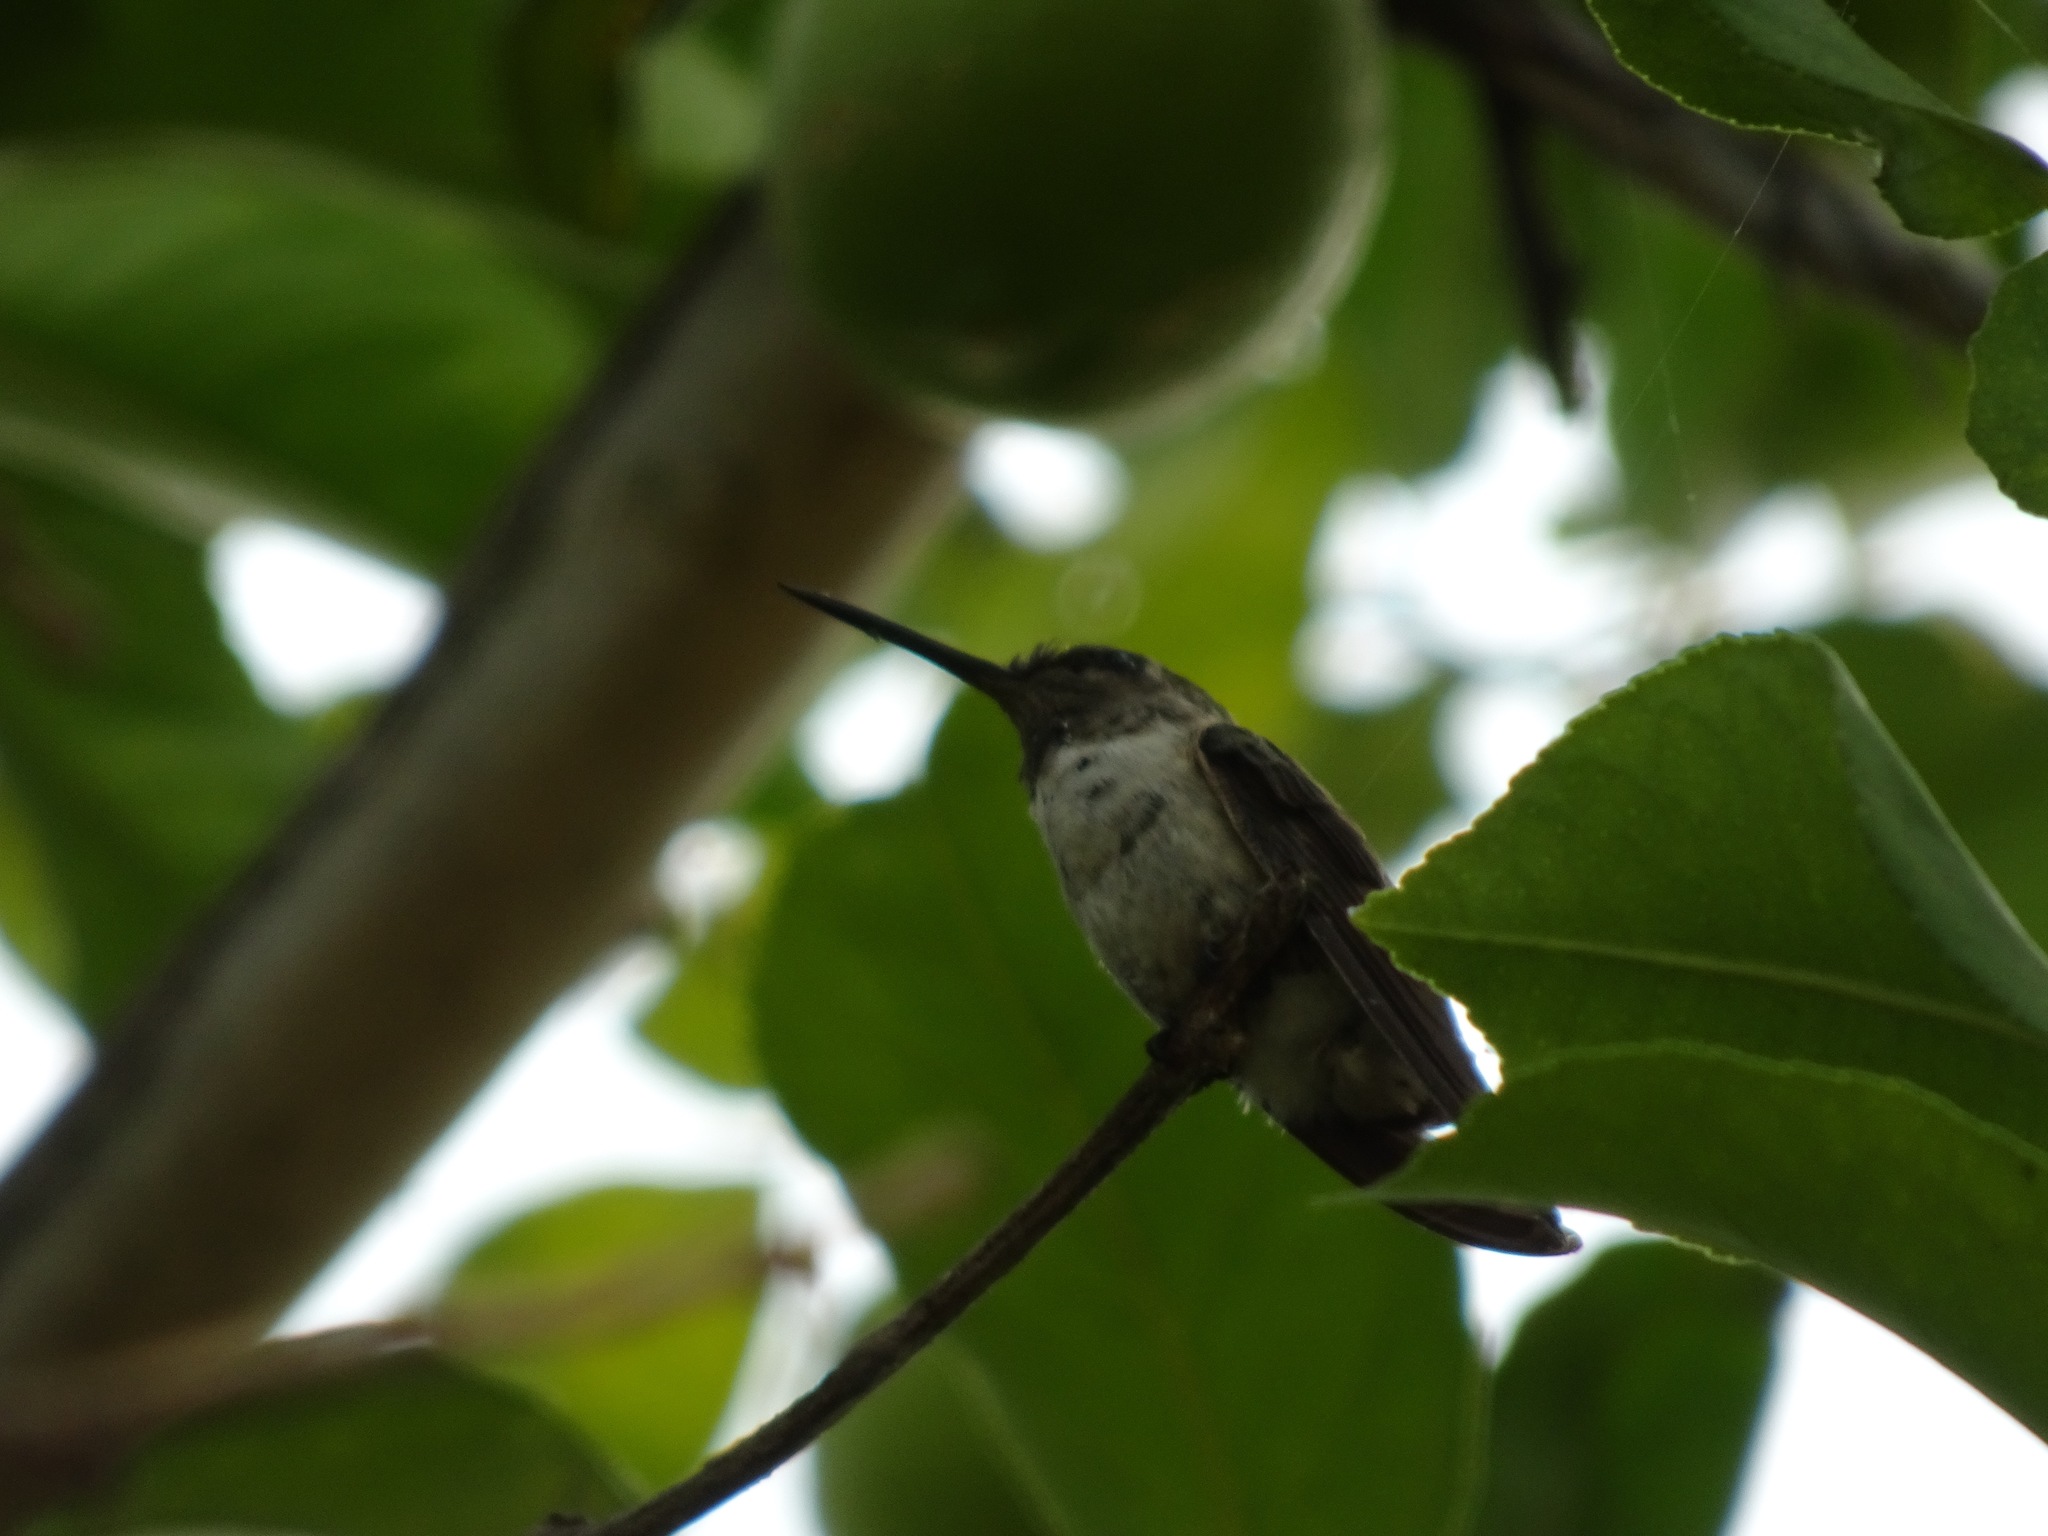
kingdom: Animalia
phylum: Chordata
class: Aves
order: Apodiformes
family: Trochilidae
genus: Calypte
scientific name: Calypte costae
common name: Costa's hummingbird
